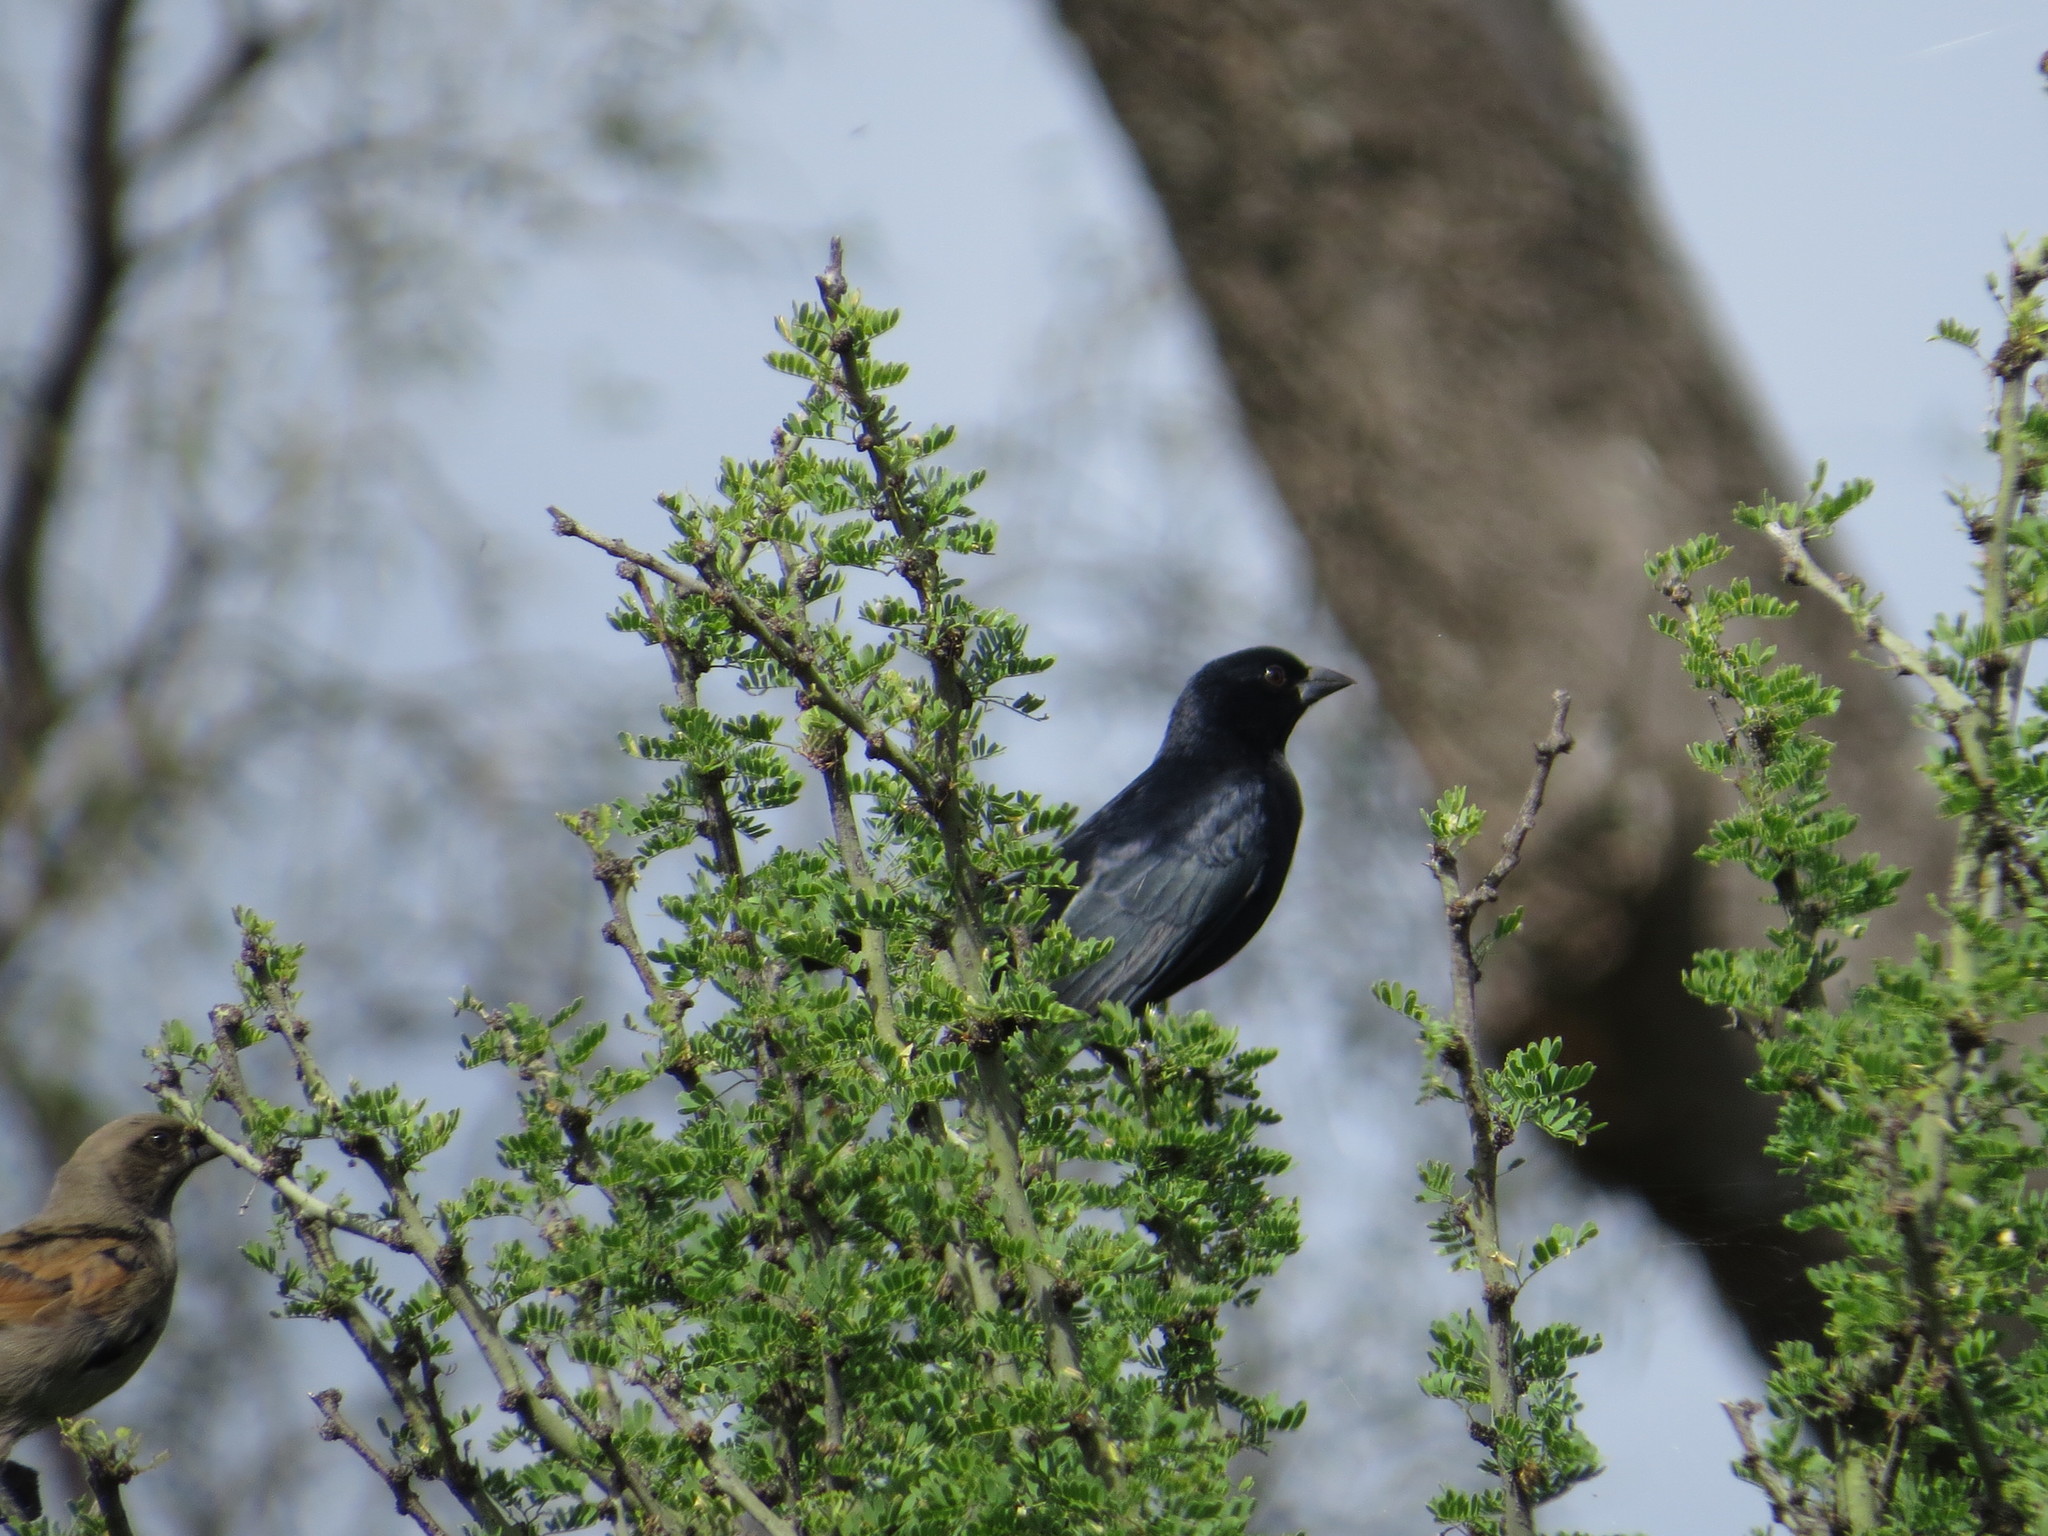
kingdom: Animalia
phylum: Chordata
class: Aves
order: Passeriformes
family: Icteridae
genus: Molothrus
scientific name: Molothrus rufoaxillaris
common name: Screaming cowbird
